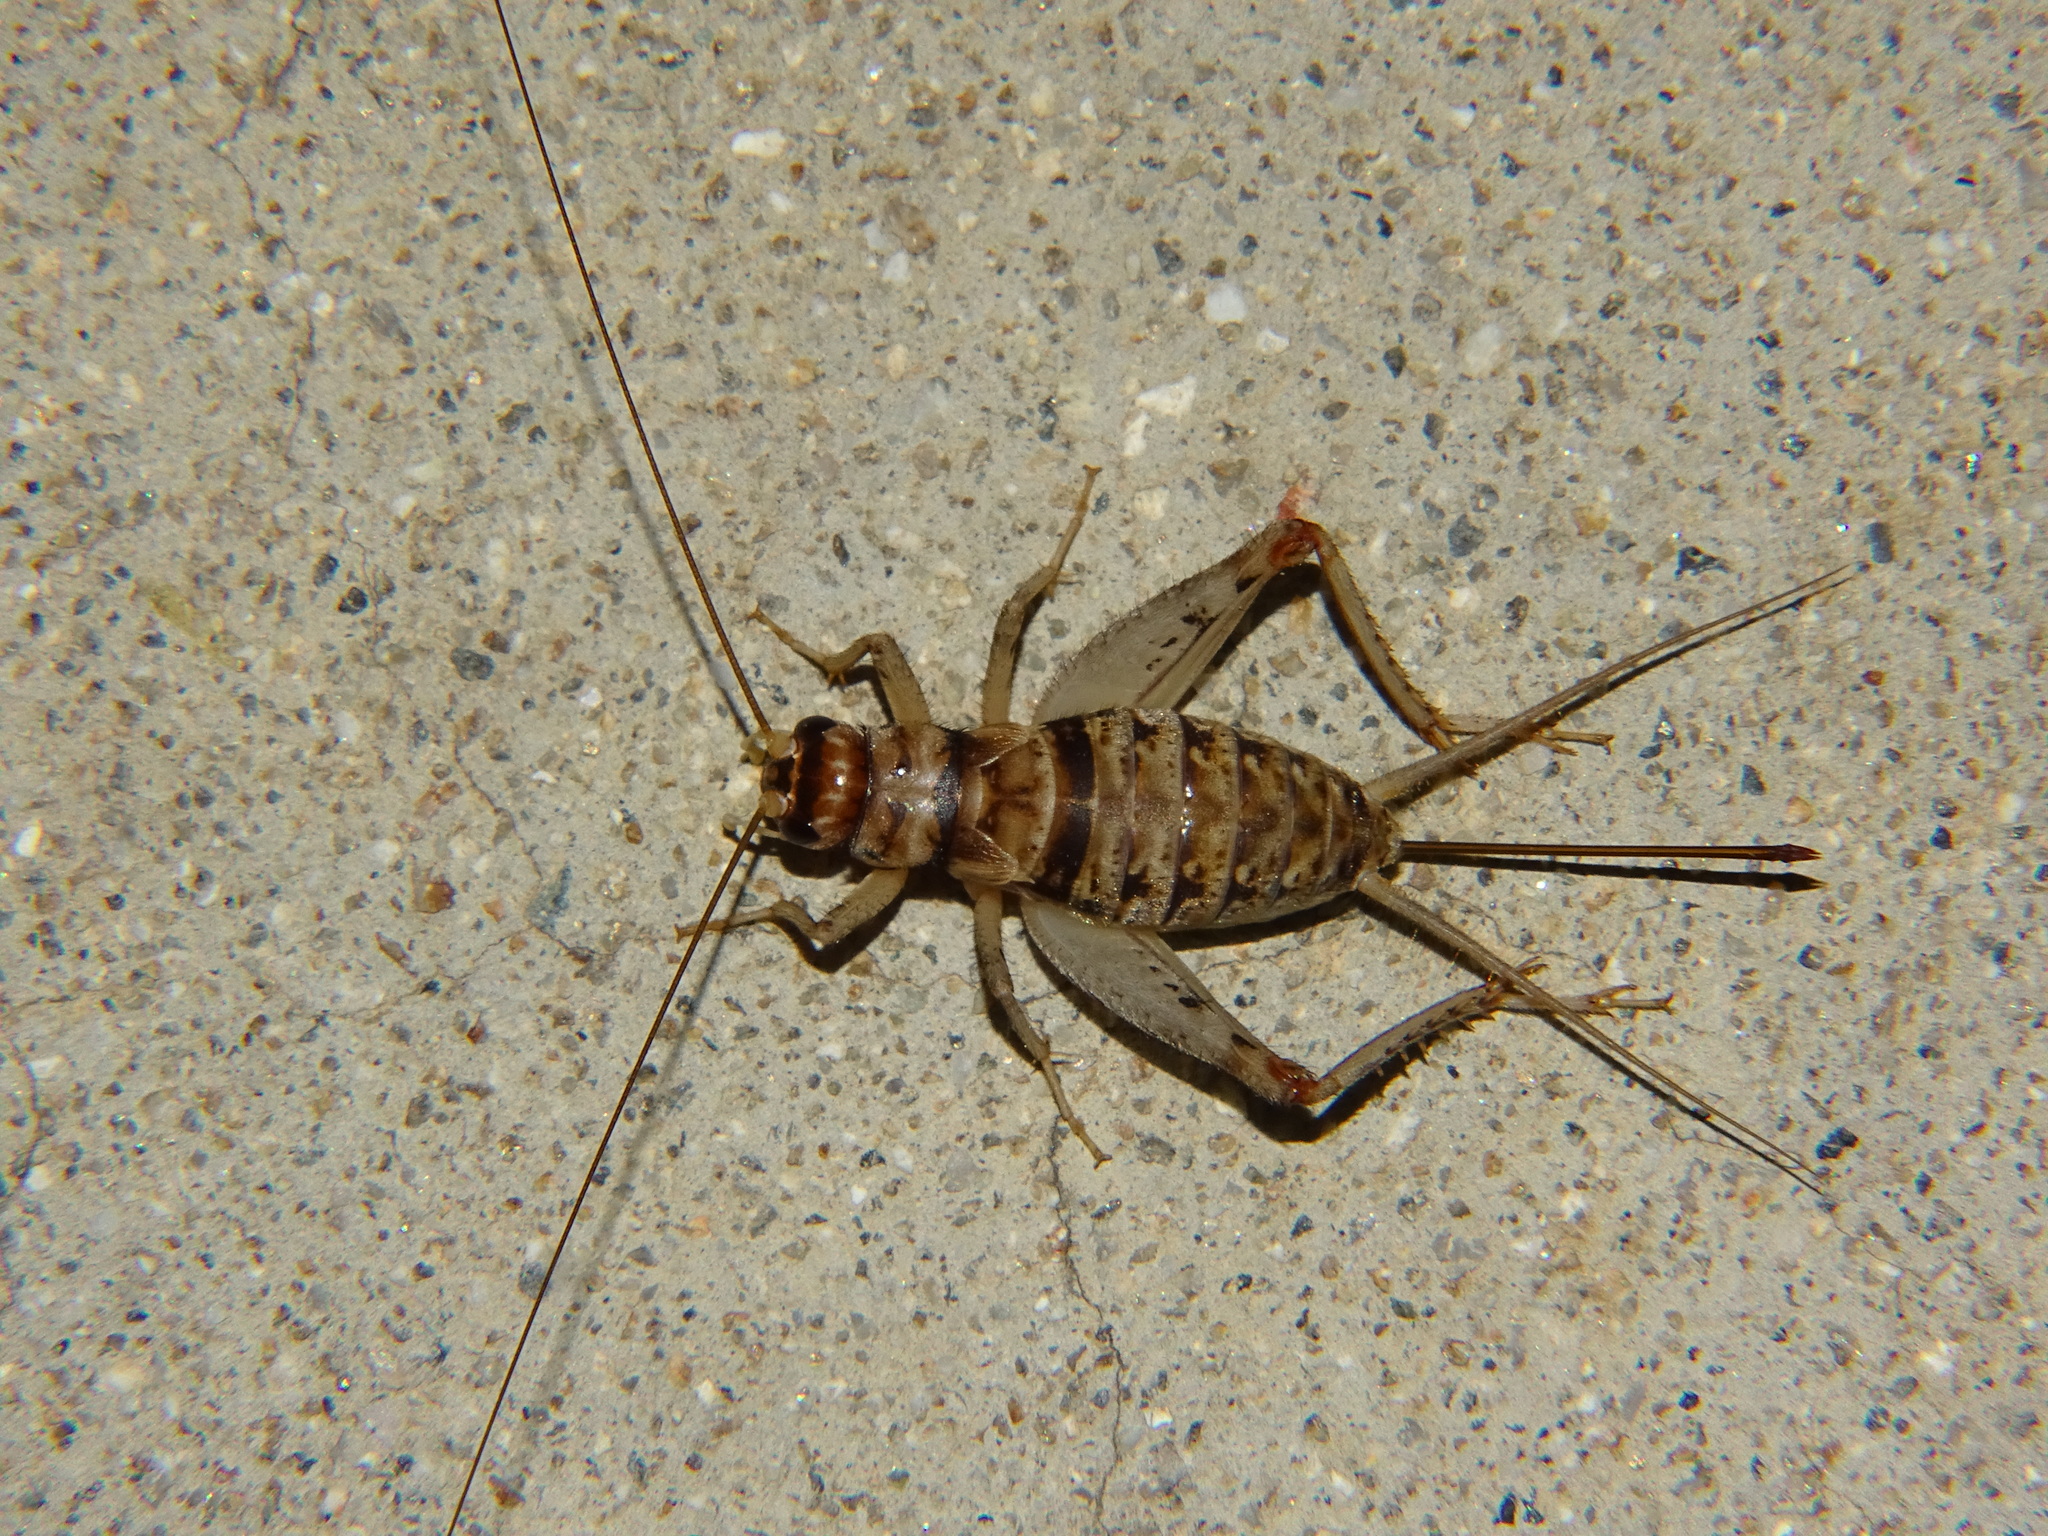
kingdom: Animalia
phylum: Arthropoda
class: Insecta
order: Orthoptera
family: Gryllidae
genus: Gryllodes
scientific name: Gryllodes sigillatus
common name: Tropical house cricket
